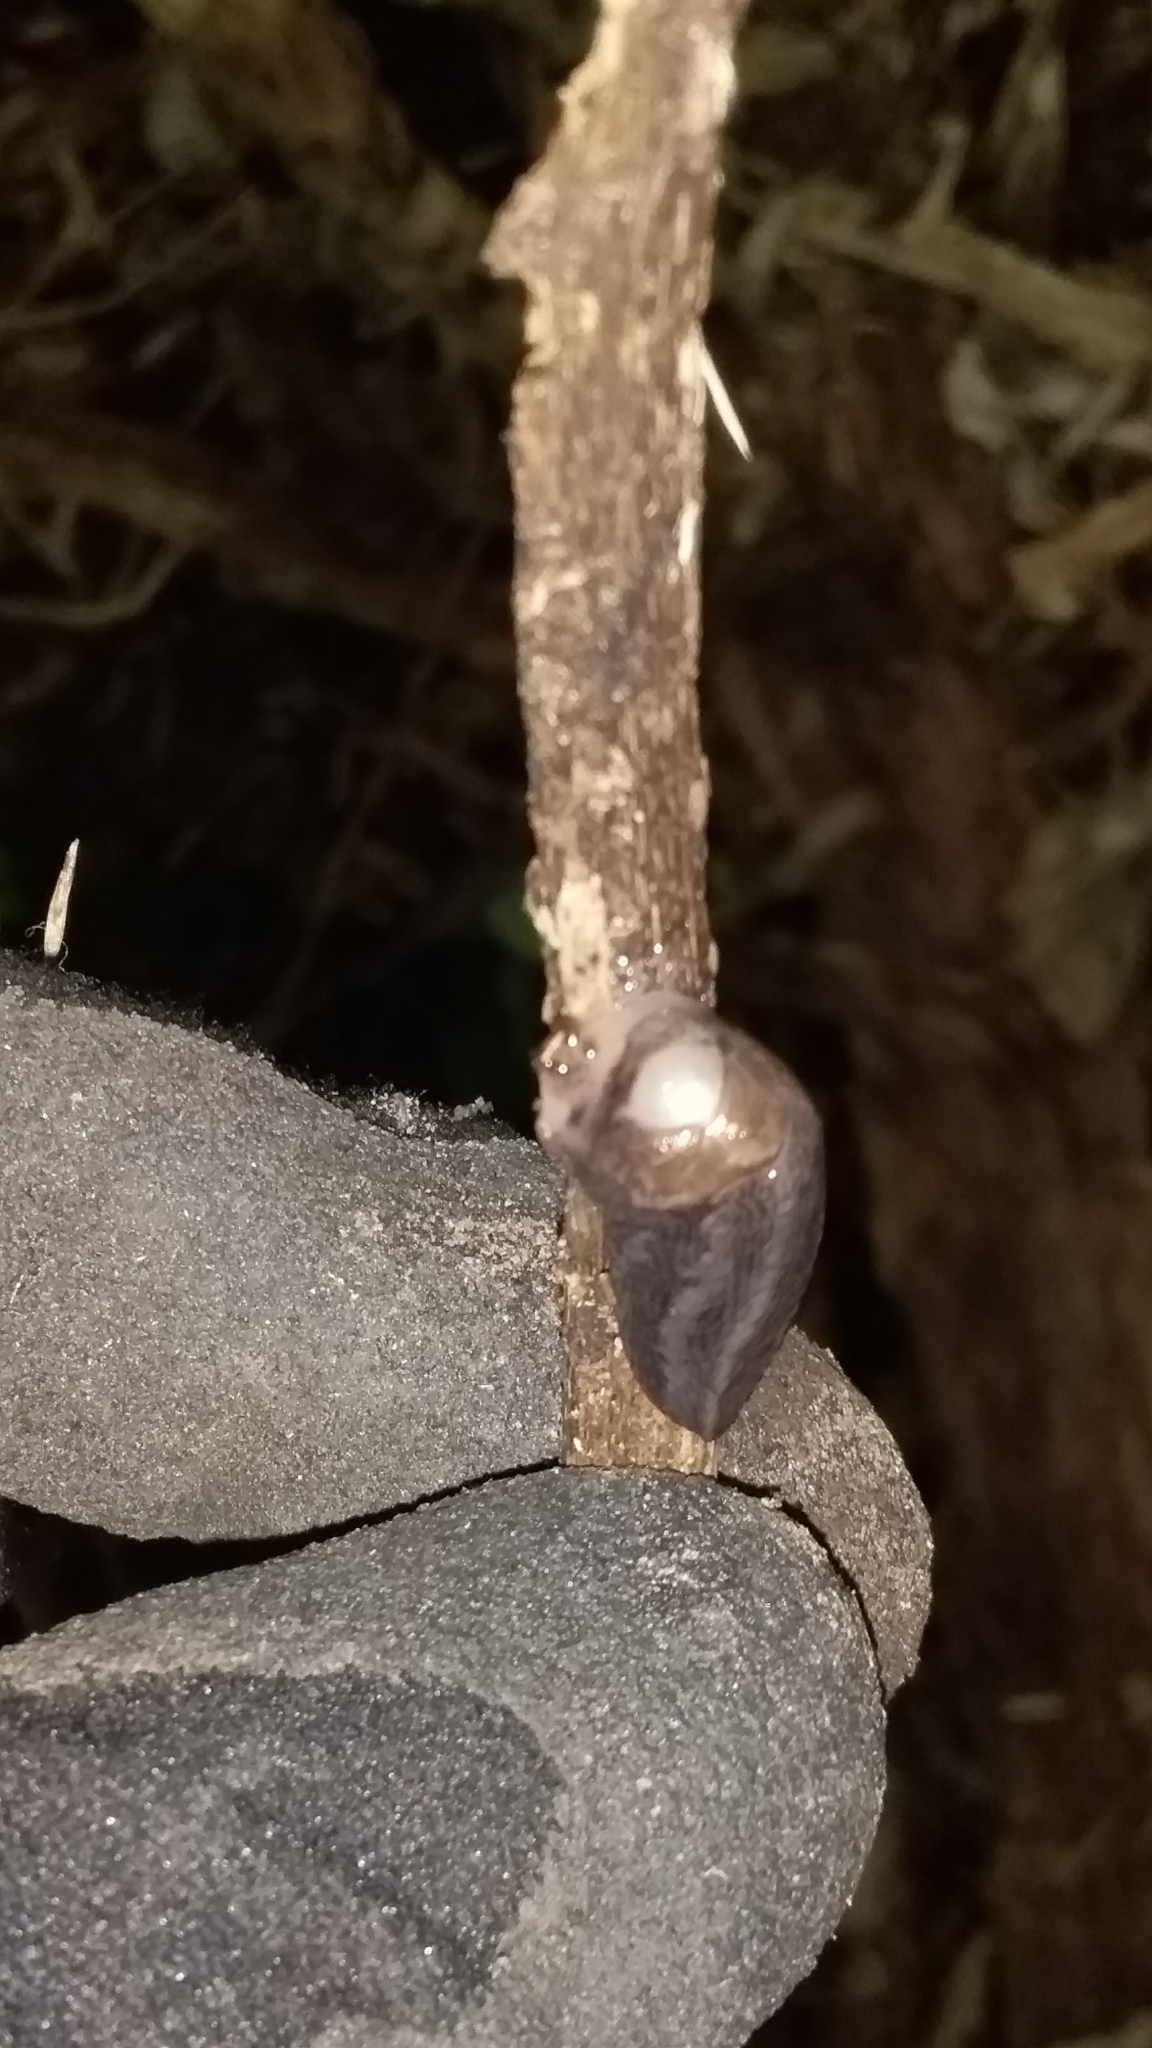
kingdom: Animalia
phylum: Mollusca
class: Gastropoda
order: Stylommatophora
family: Limacidae
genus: Limax
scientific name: Limax maximus
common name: Great grey slug
